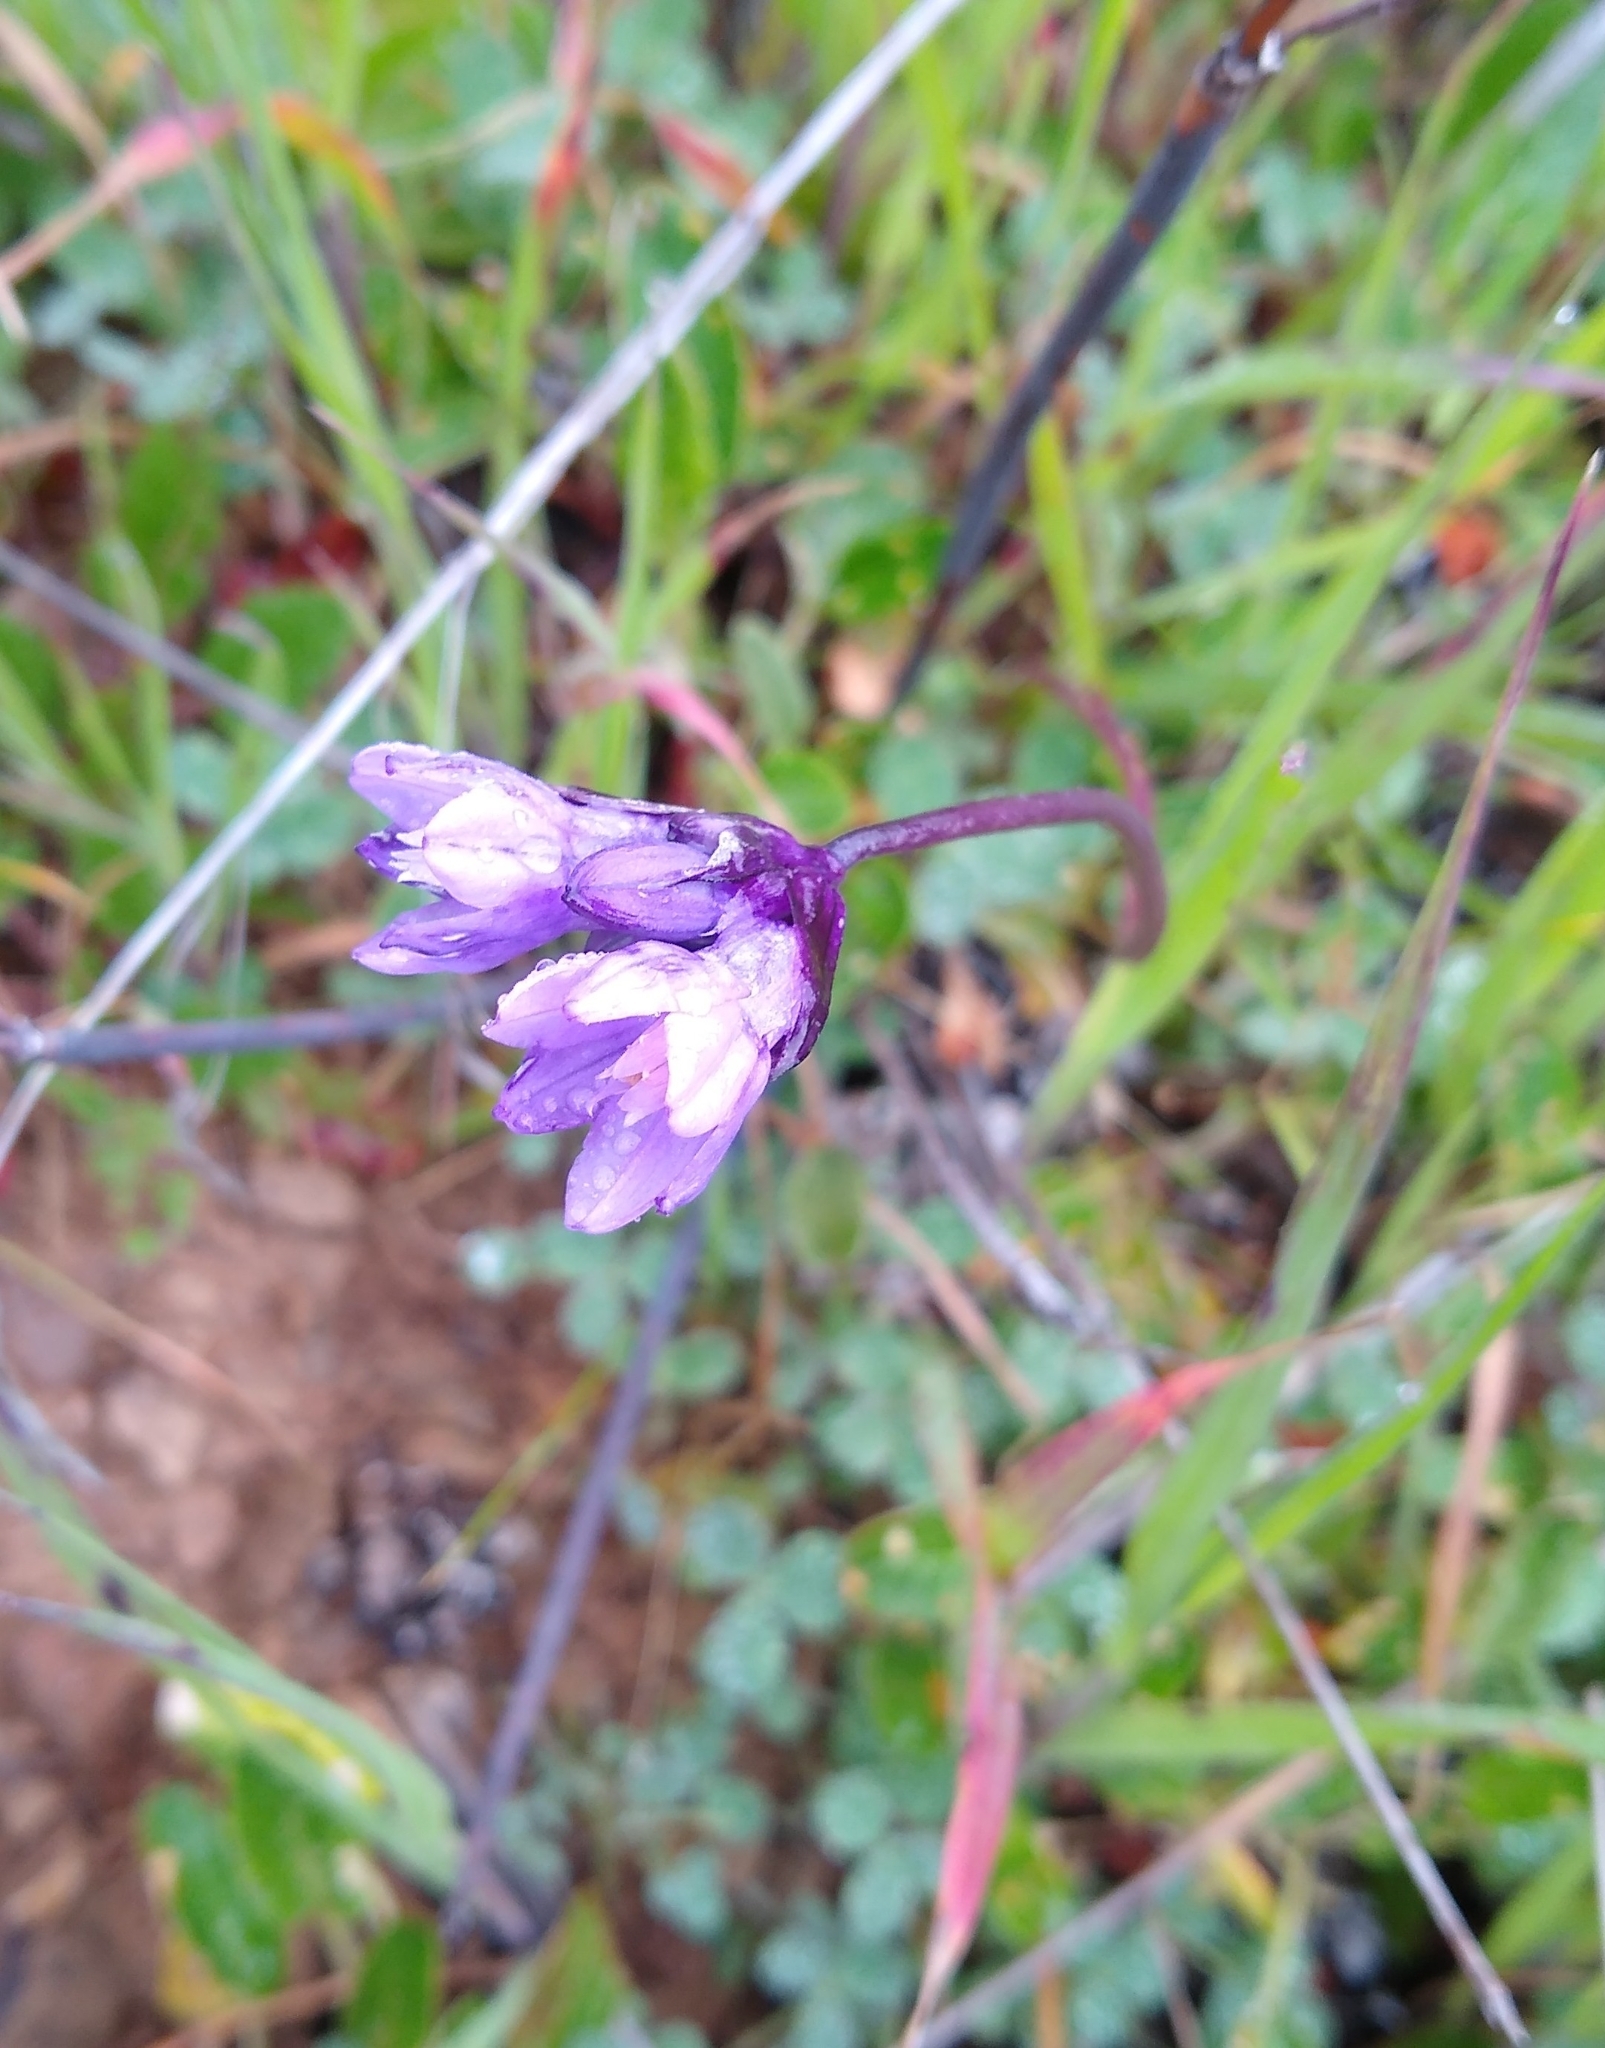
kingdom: Plantae
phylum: Tracheophyta
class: Liliopsida
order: Asparagales
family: Asparagaceae
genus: Dipterostemon
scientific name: Dipterostemon capitatus
